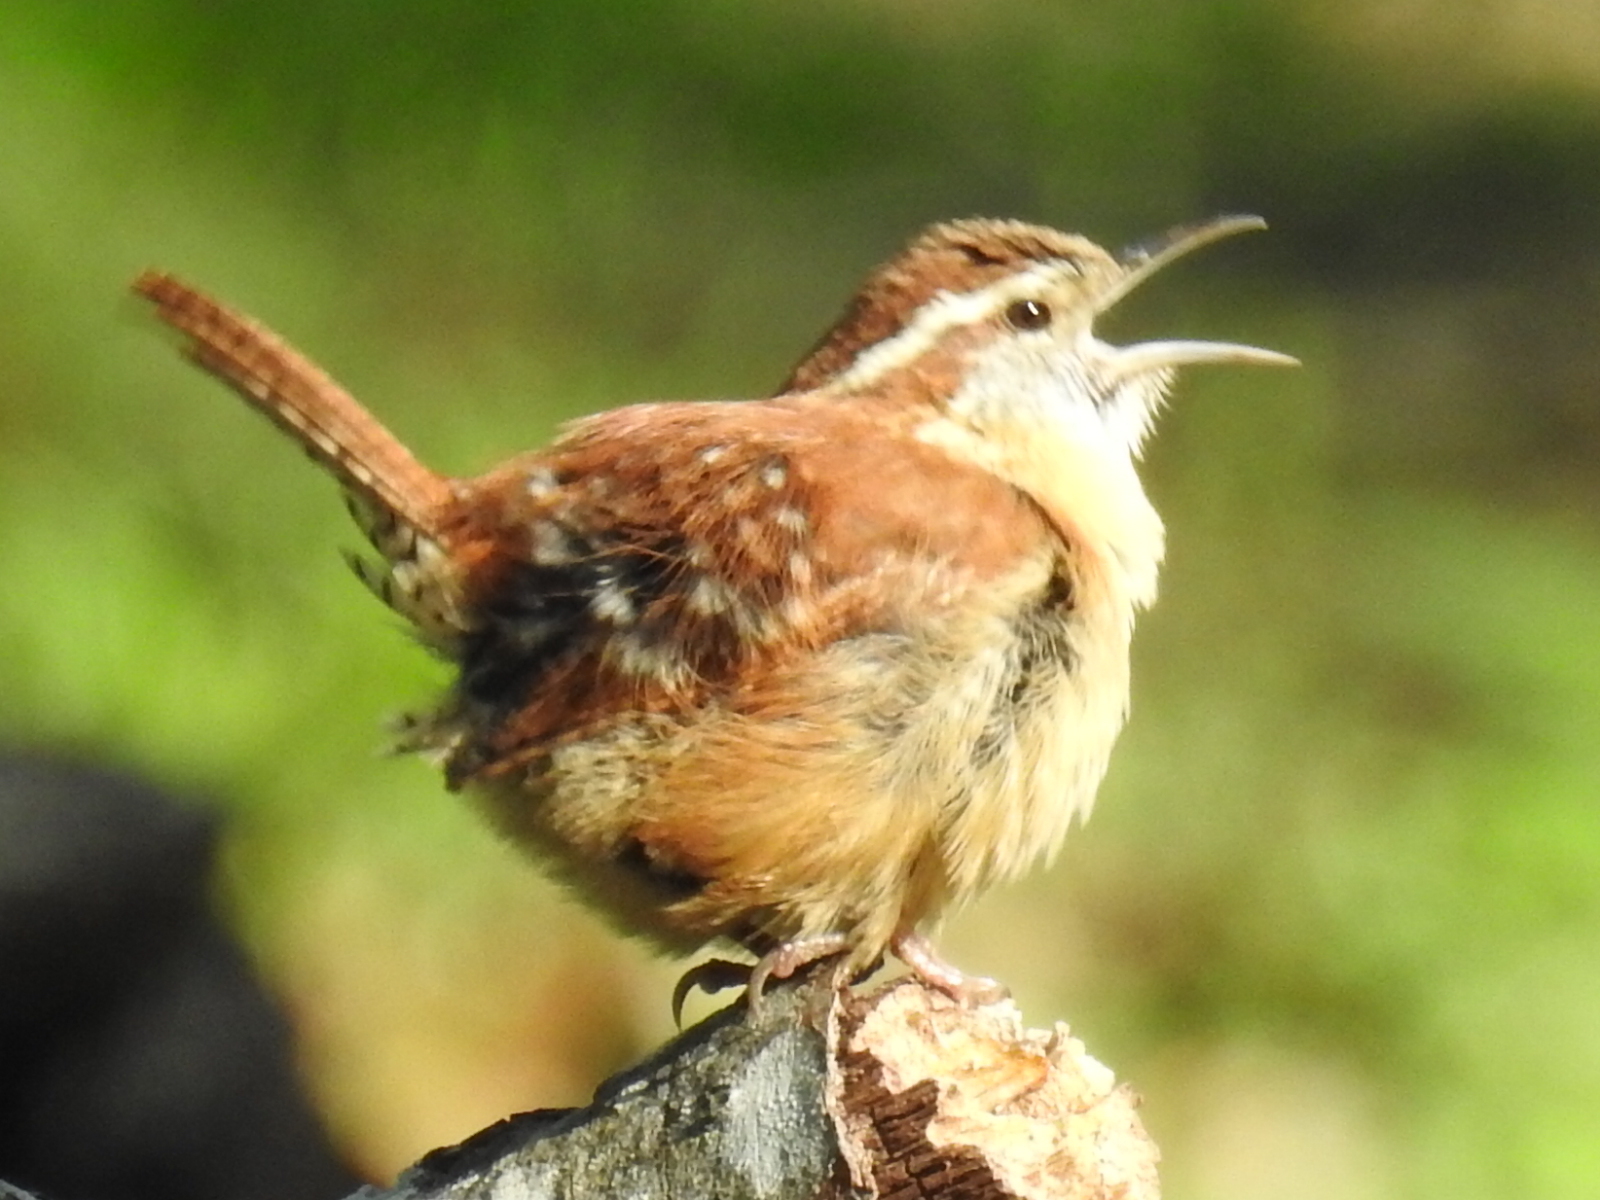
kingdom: Animalia
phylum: Chordata
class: Aves
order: Passeriformes
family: Troglodytidae
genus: Thryothorus
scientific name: Thryothorus ludovicianus
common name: Carolina wren
